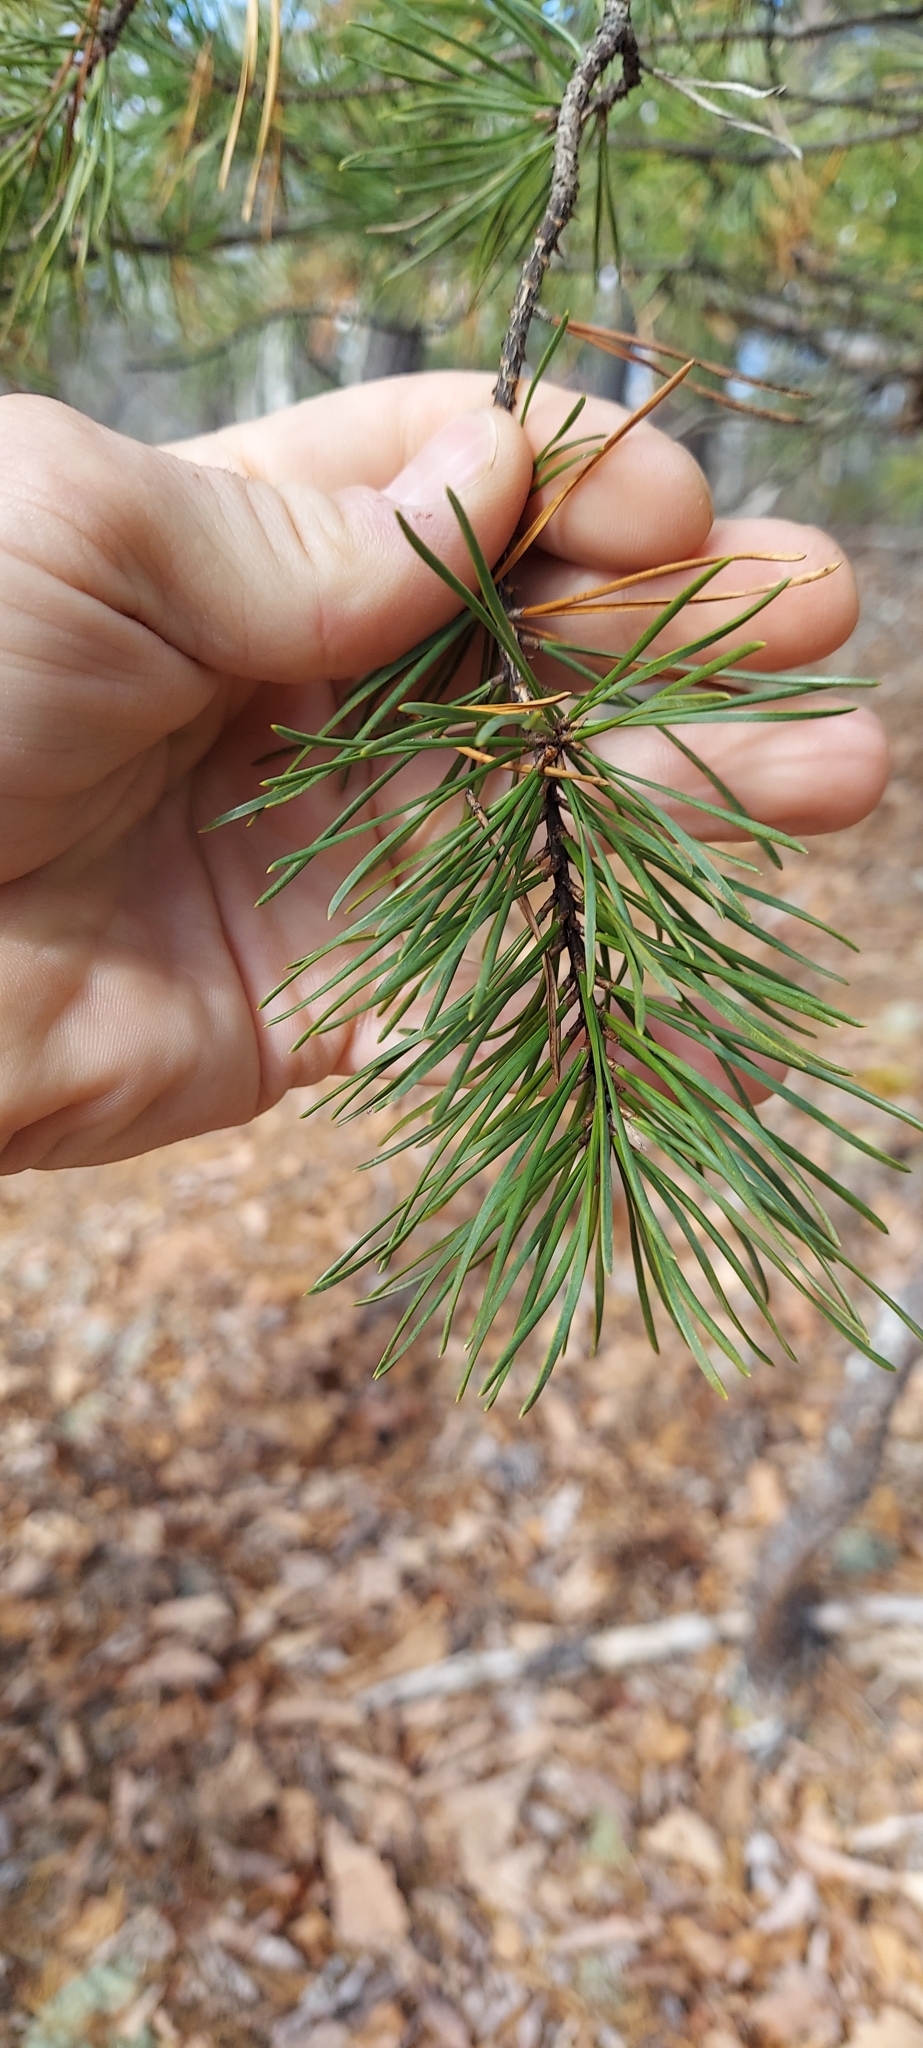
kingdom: Plantae
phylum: Tracheophyta
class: Pinopsida
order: Pinales
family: Pinaceae
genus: Pinus
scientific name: Pinus virginiana
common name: Scrub pine
